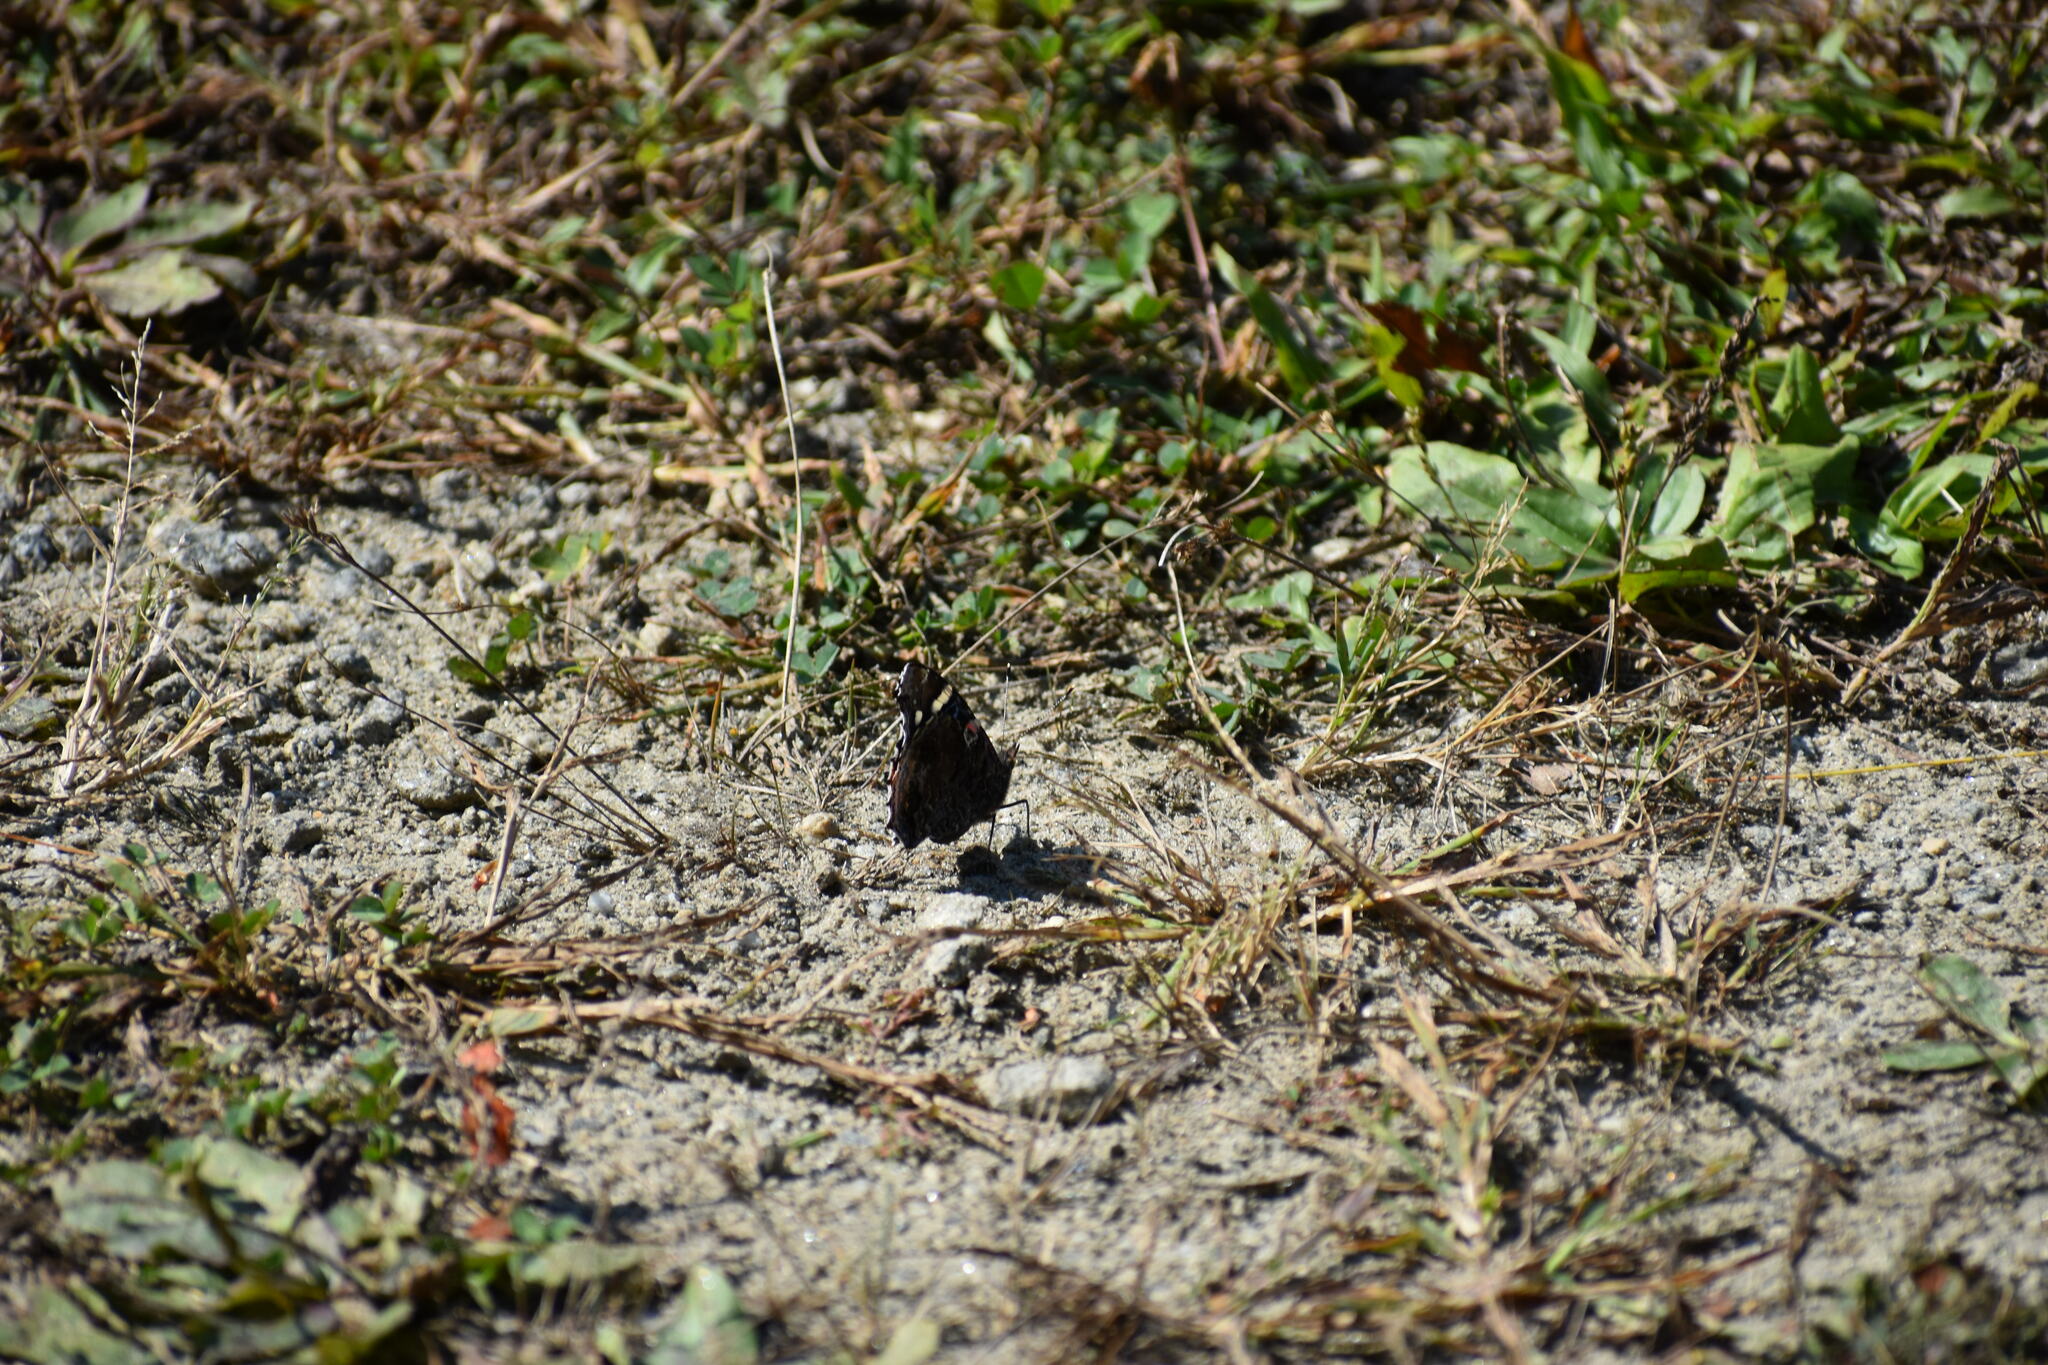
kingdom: Animalia
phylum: Arthropoda
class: Insecta
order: Lepidoptera
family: Nymphalidae
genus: Vanessa
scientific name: Vanessa atalanta
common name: Red admiral
